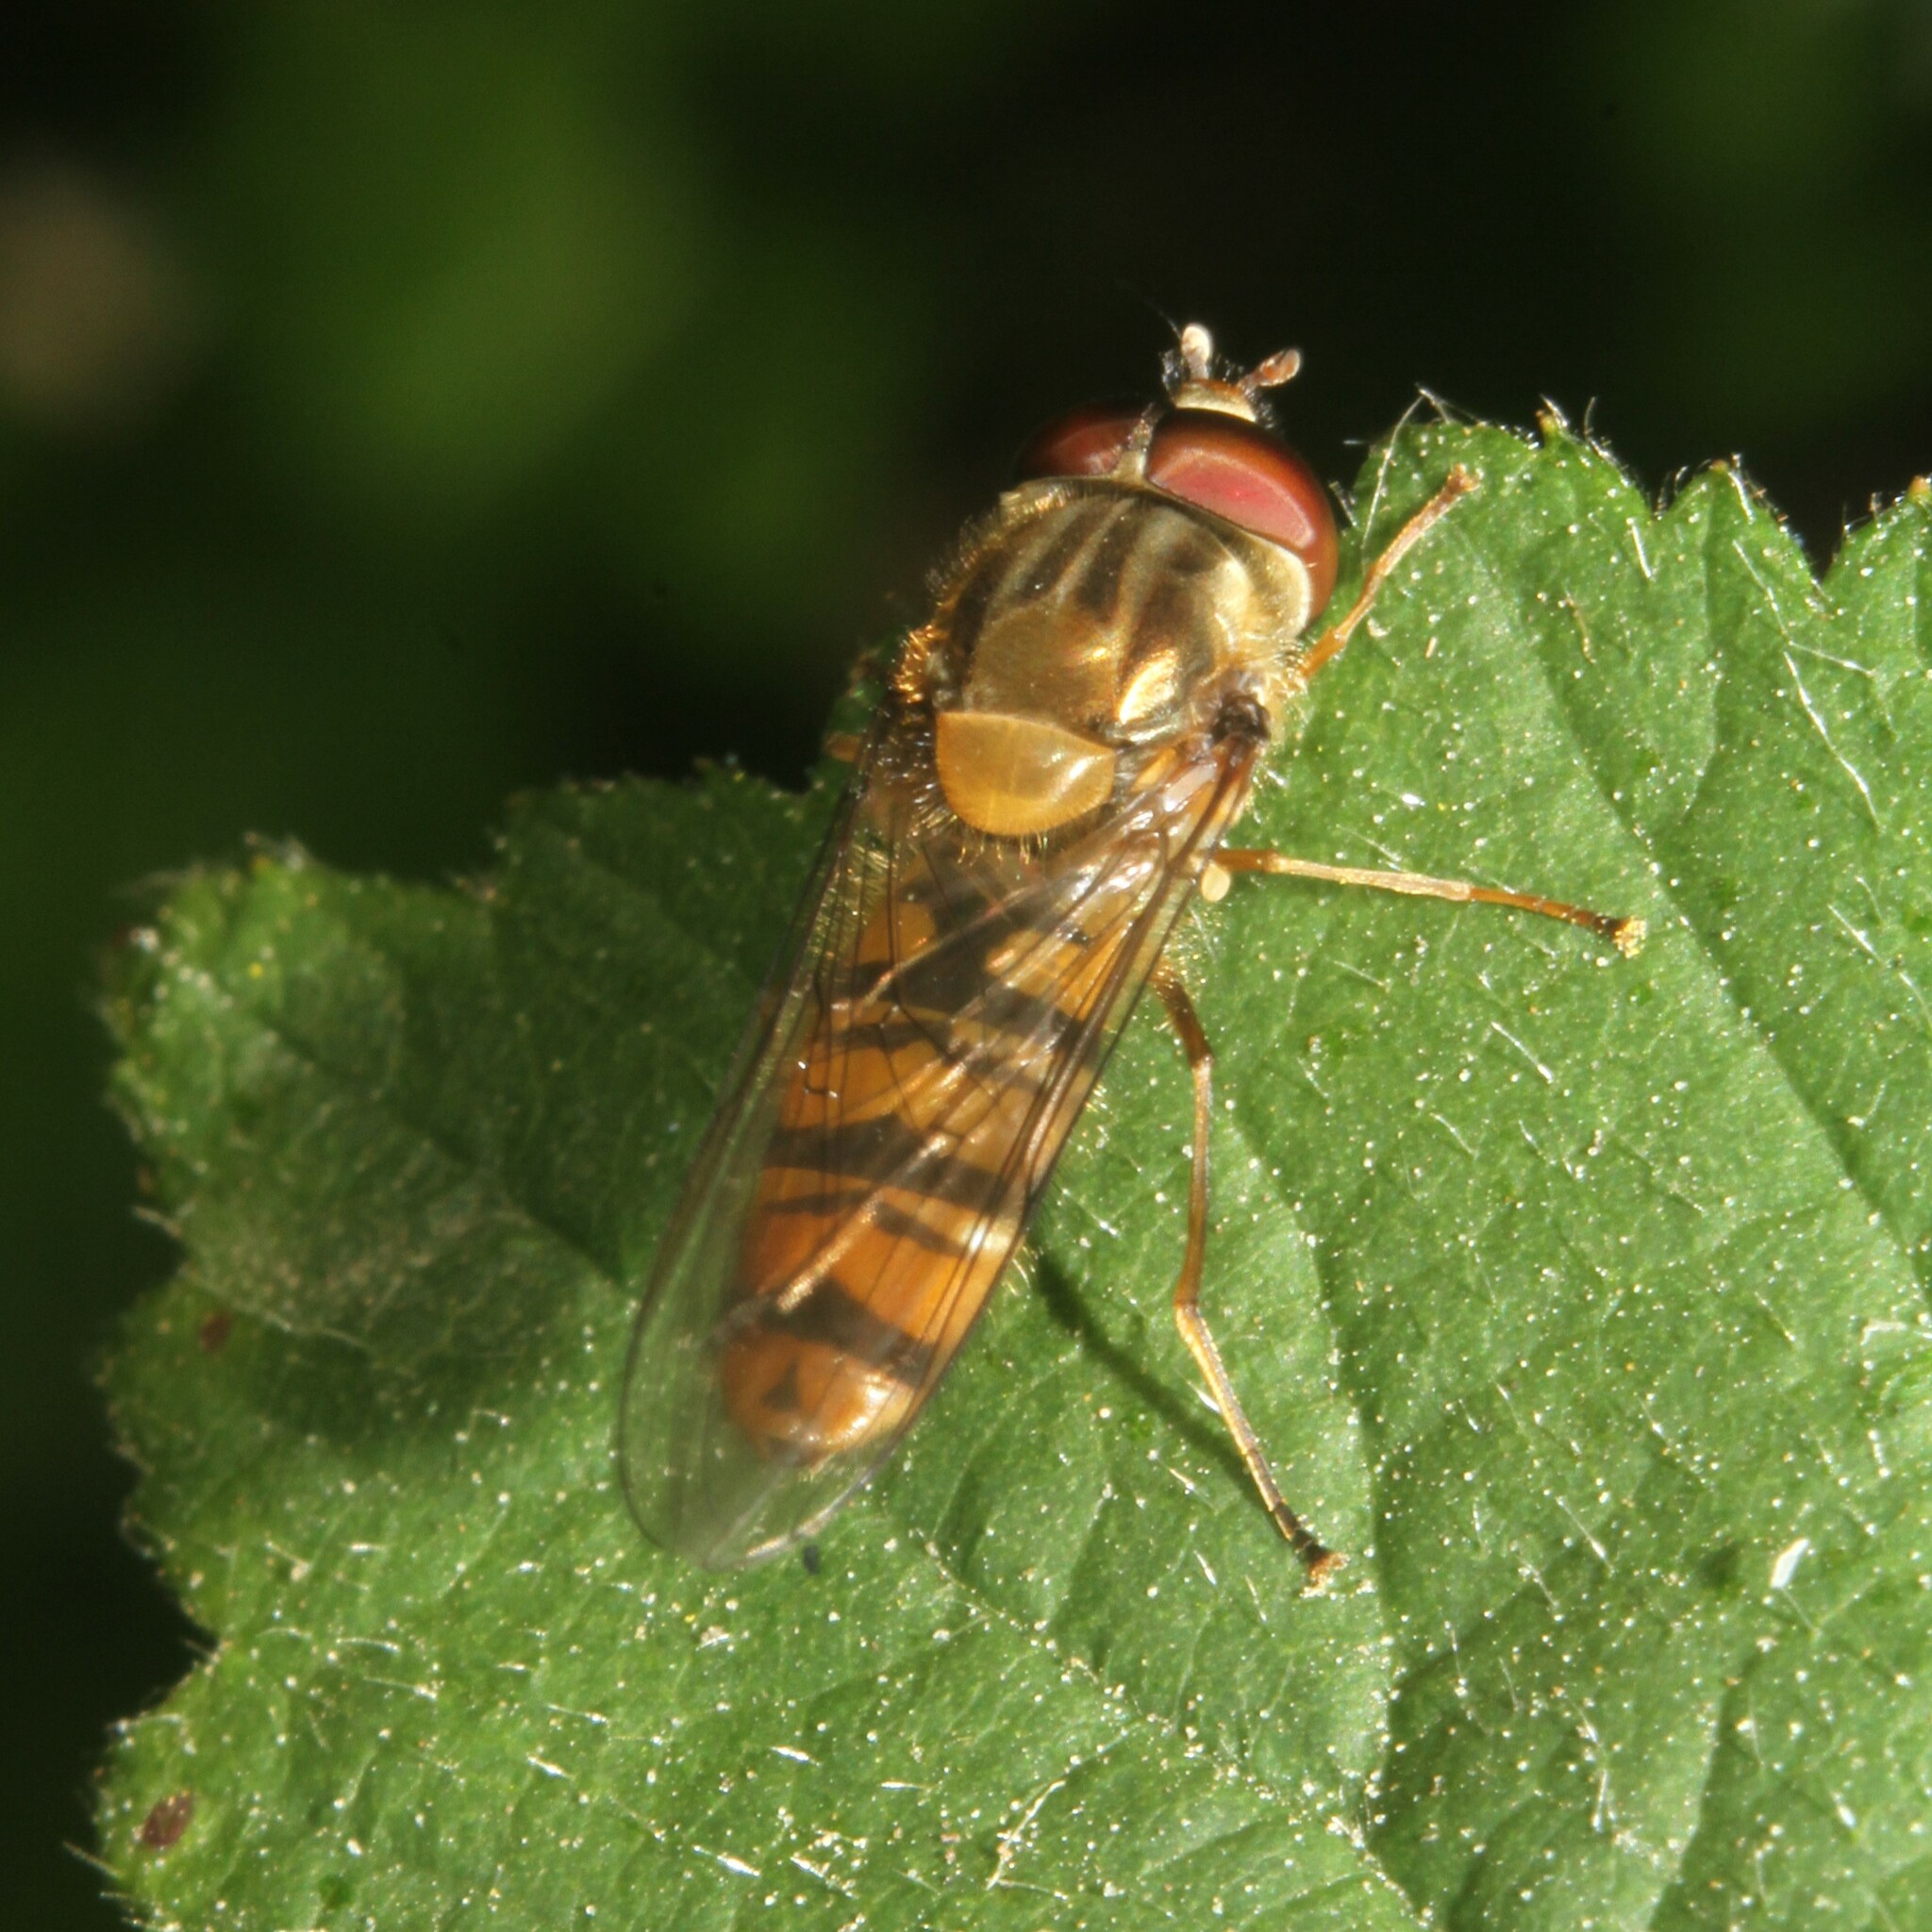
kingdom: Animalia
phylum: Arthropoda
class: Insecta
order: Diptera
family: Syrphidae
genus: Episyrphus
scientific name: Episyrphus balteatus
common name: Marmalade hoverfly
